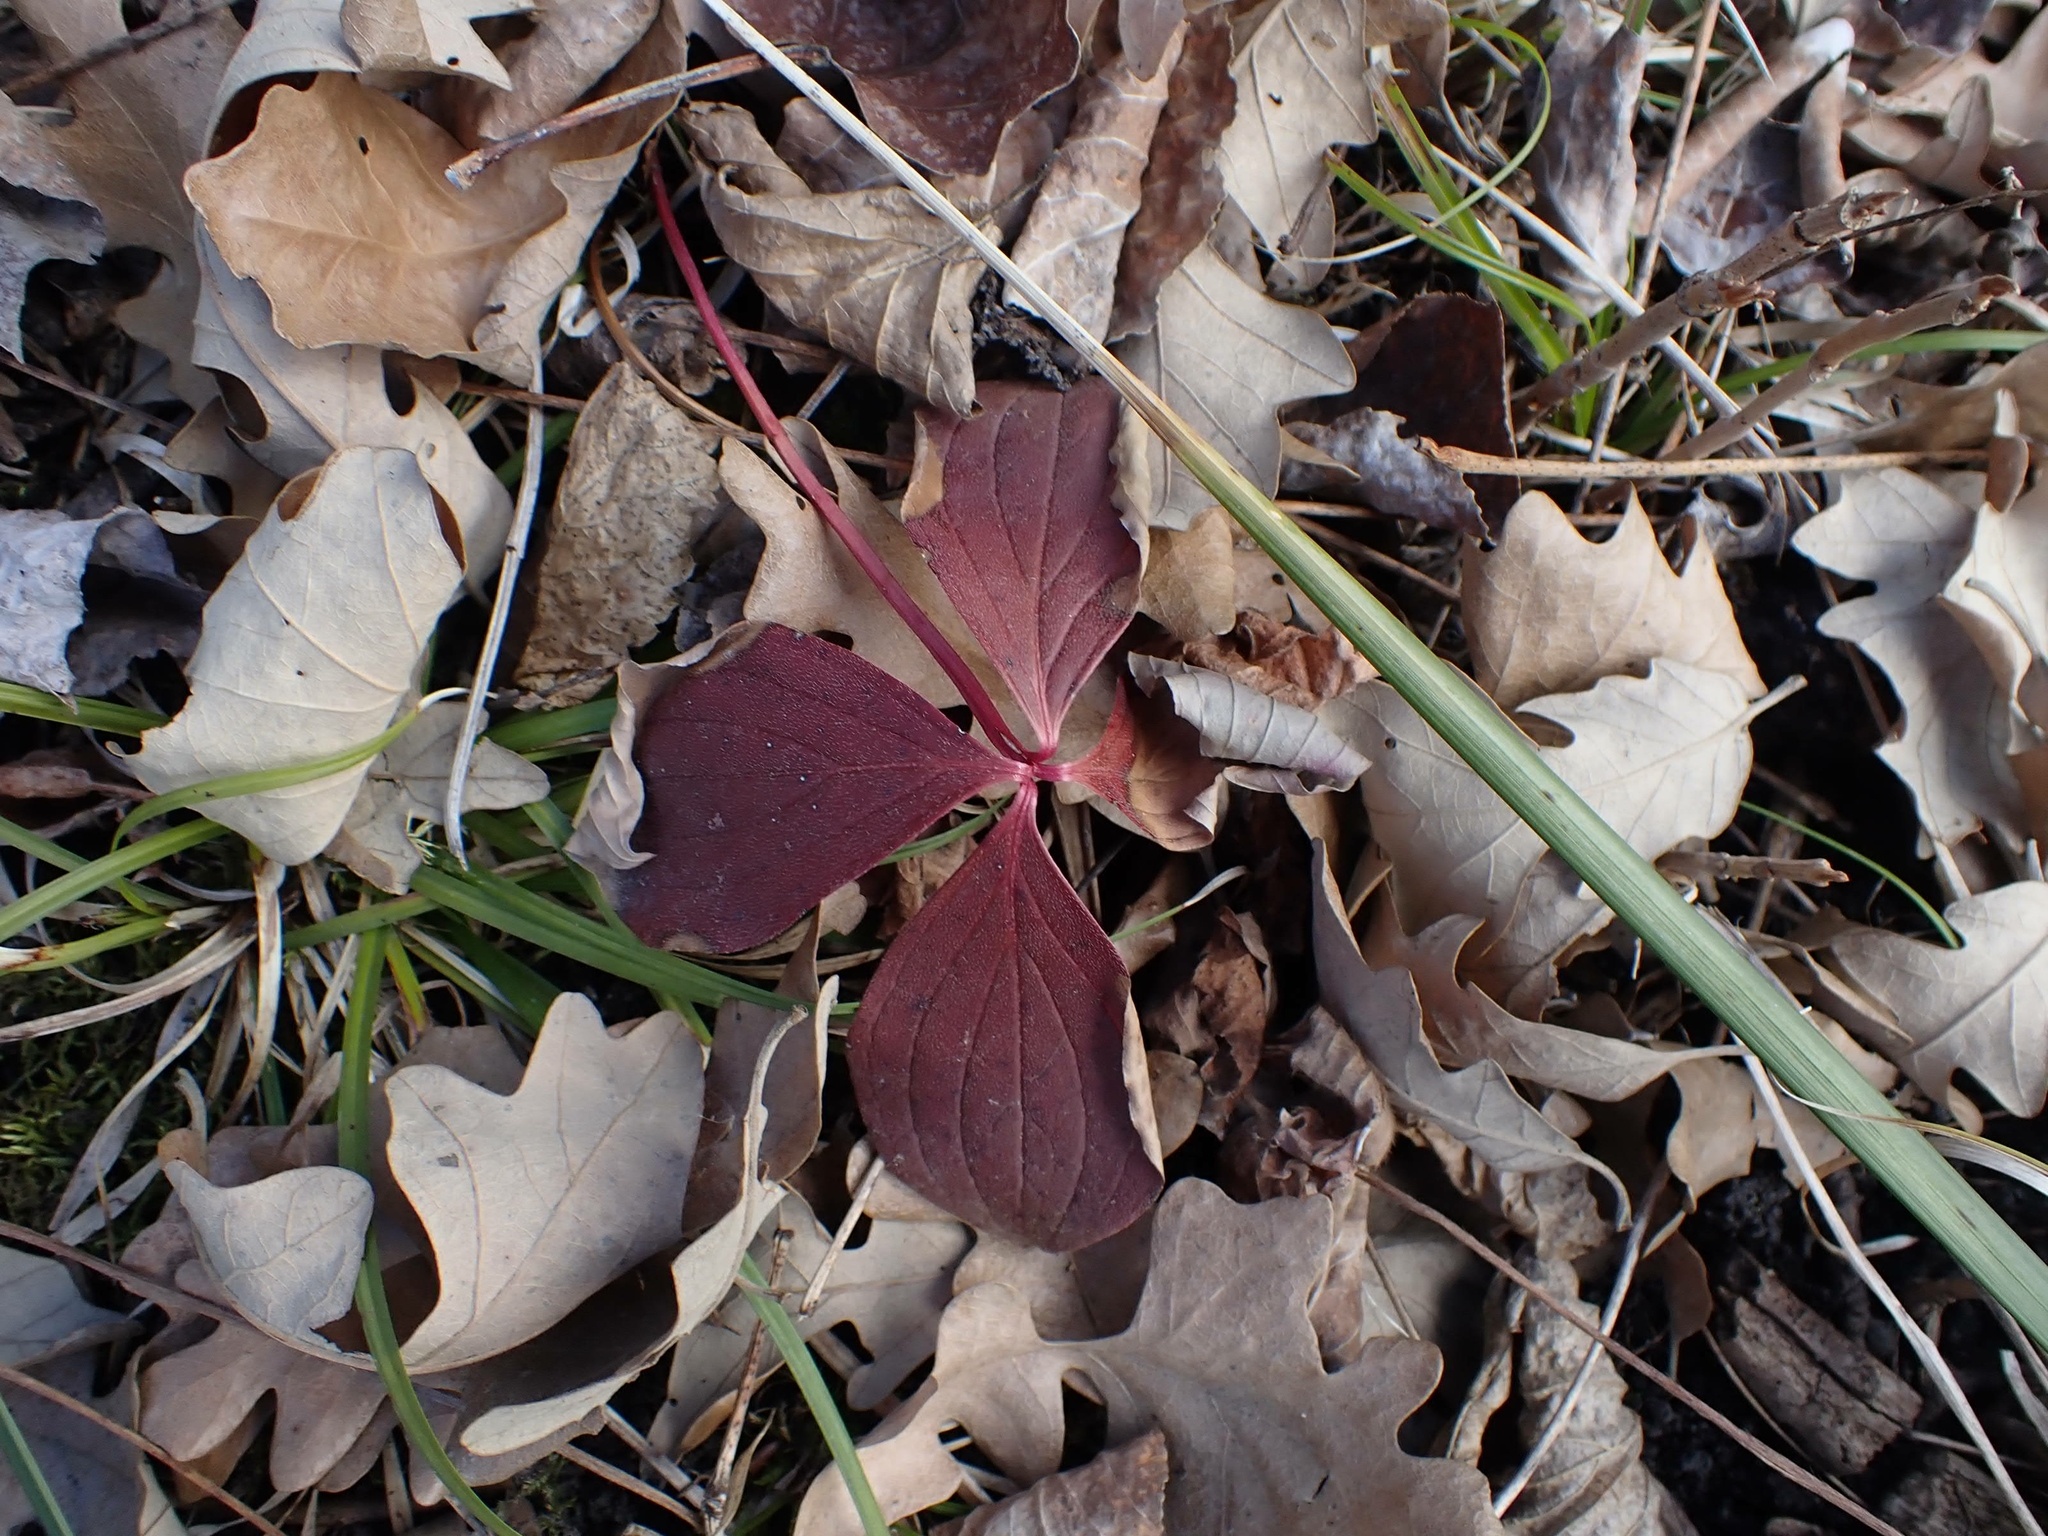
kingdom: Plantae
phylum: Tracheophyta
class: Magnoliopsida
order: Cornales
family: Cornaceae
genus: Cornus
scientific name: Cornus canadensis
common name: Creeping dogwood
